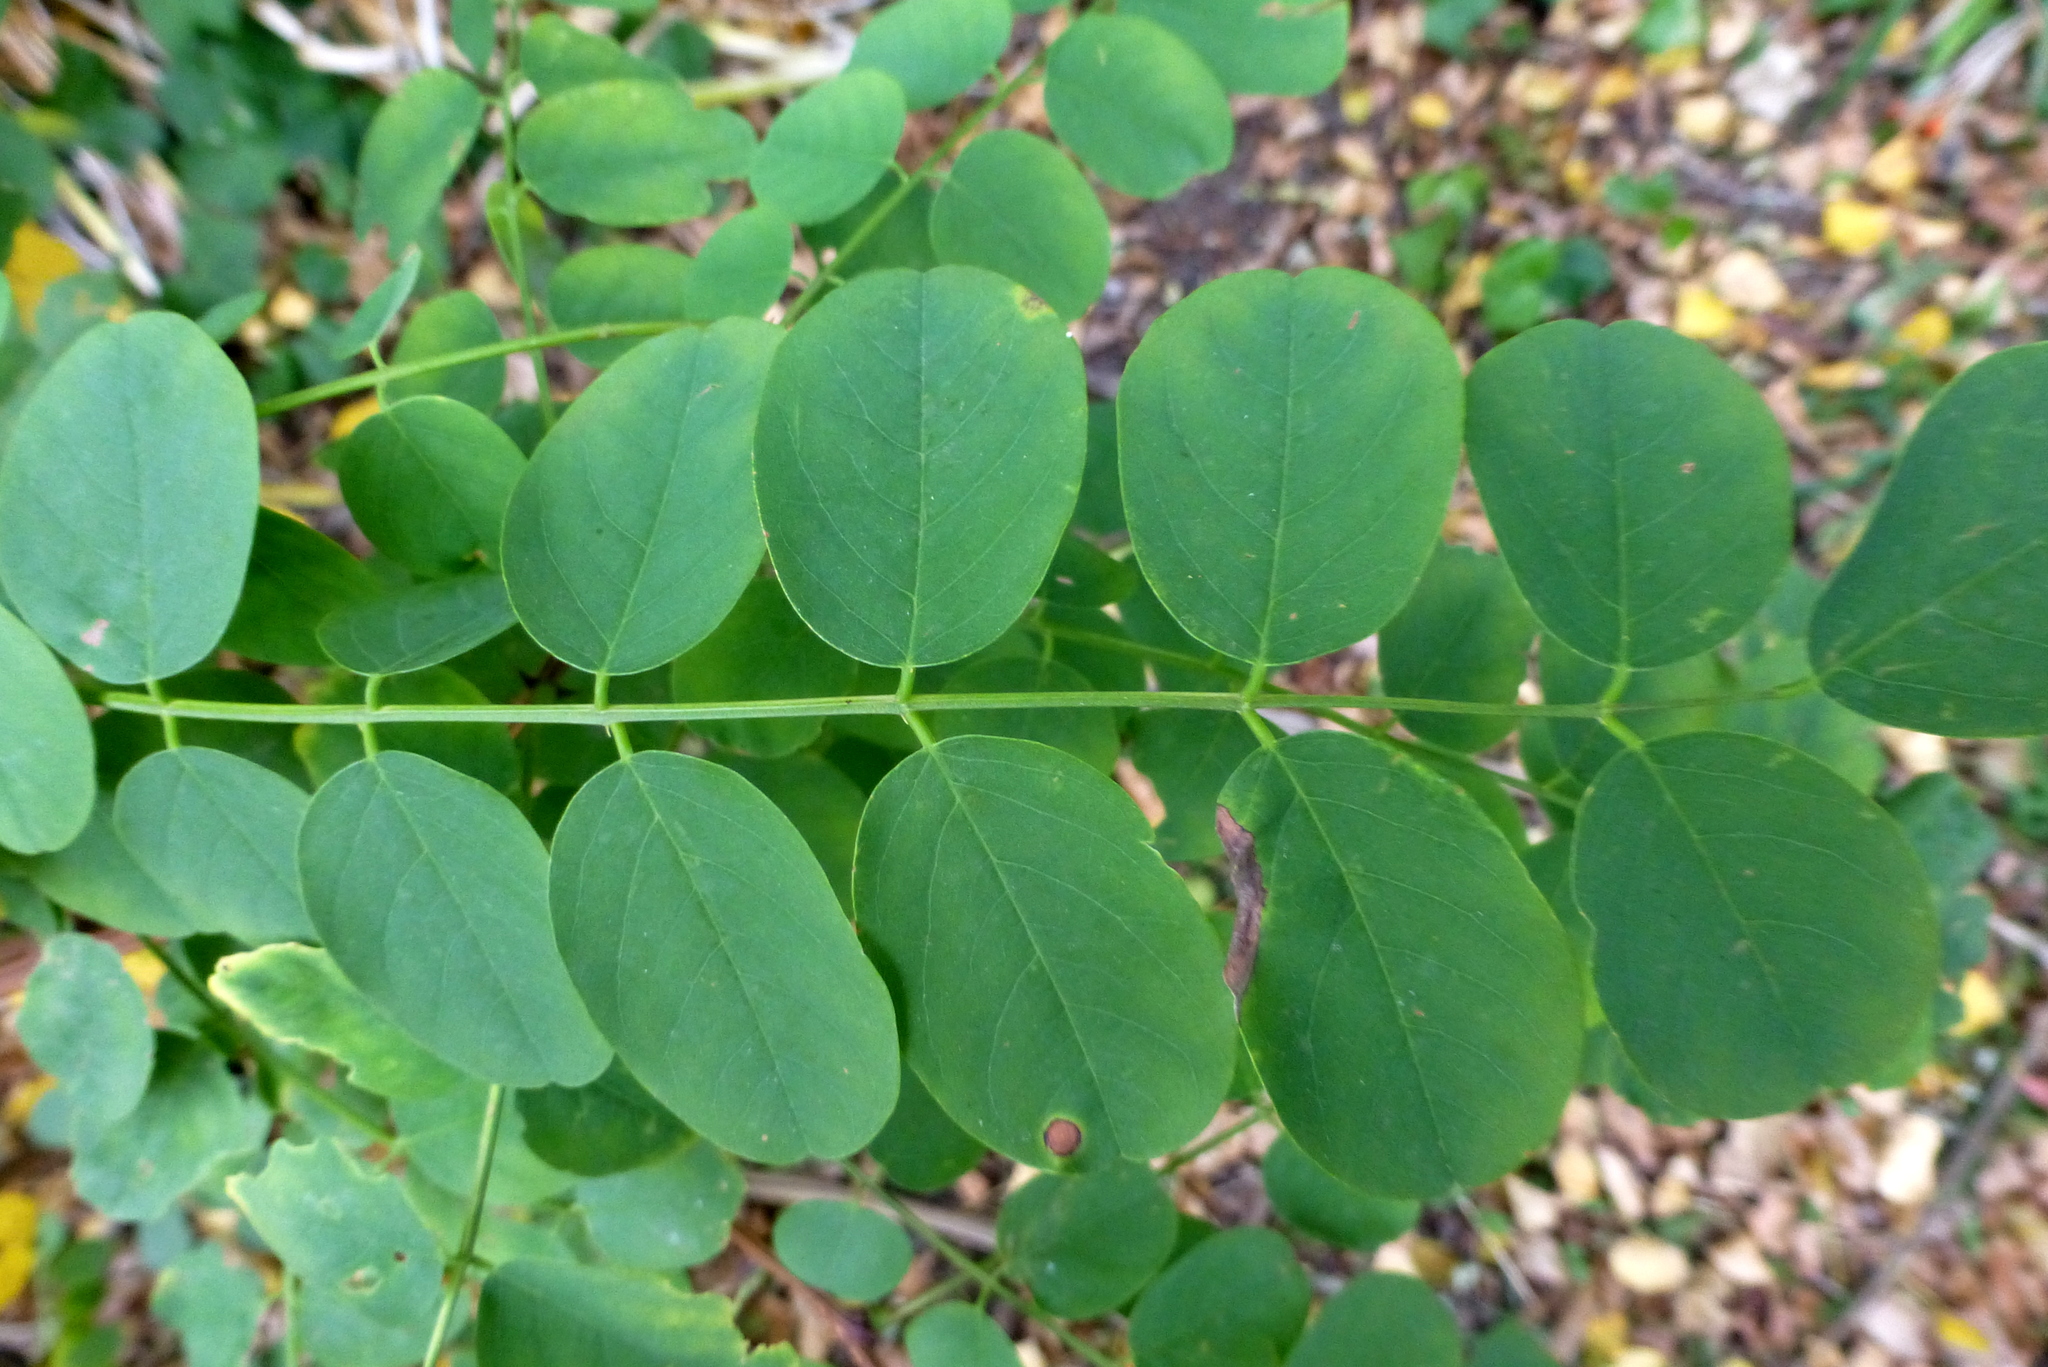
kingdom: Plantae
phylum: Tracheophyta
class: Magnoliopsida
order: Fabales
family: Fabaceae
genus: Robinia
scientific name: Robinia pseudoacacia
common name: Black locust
